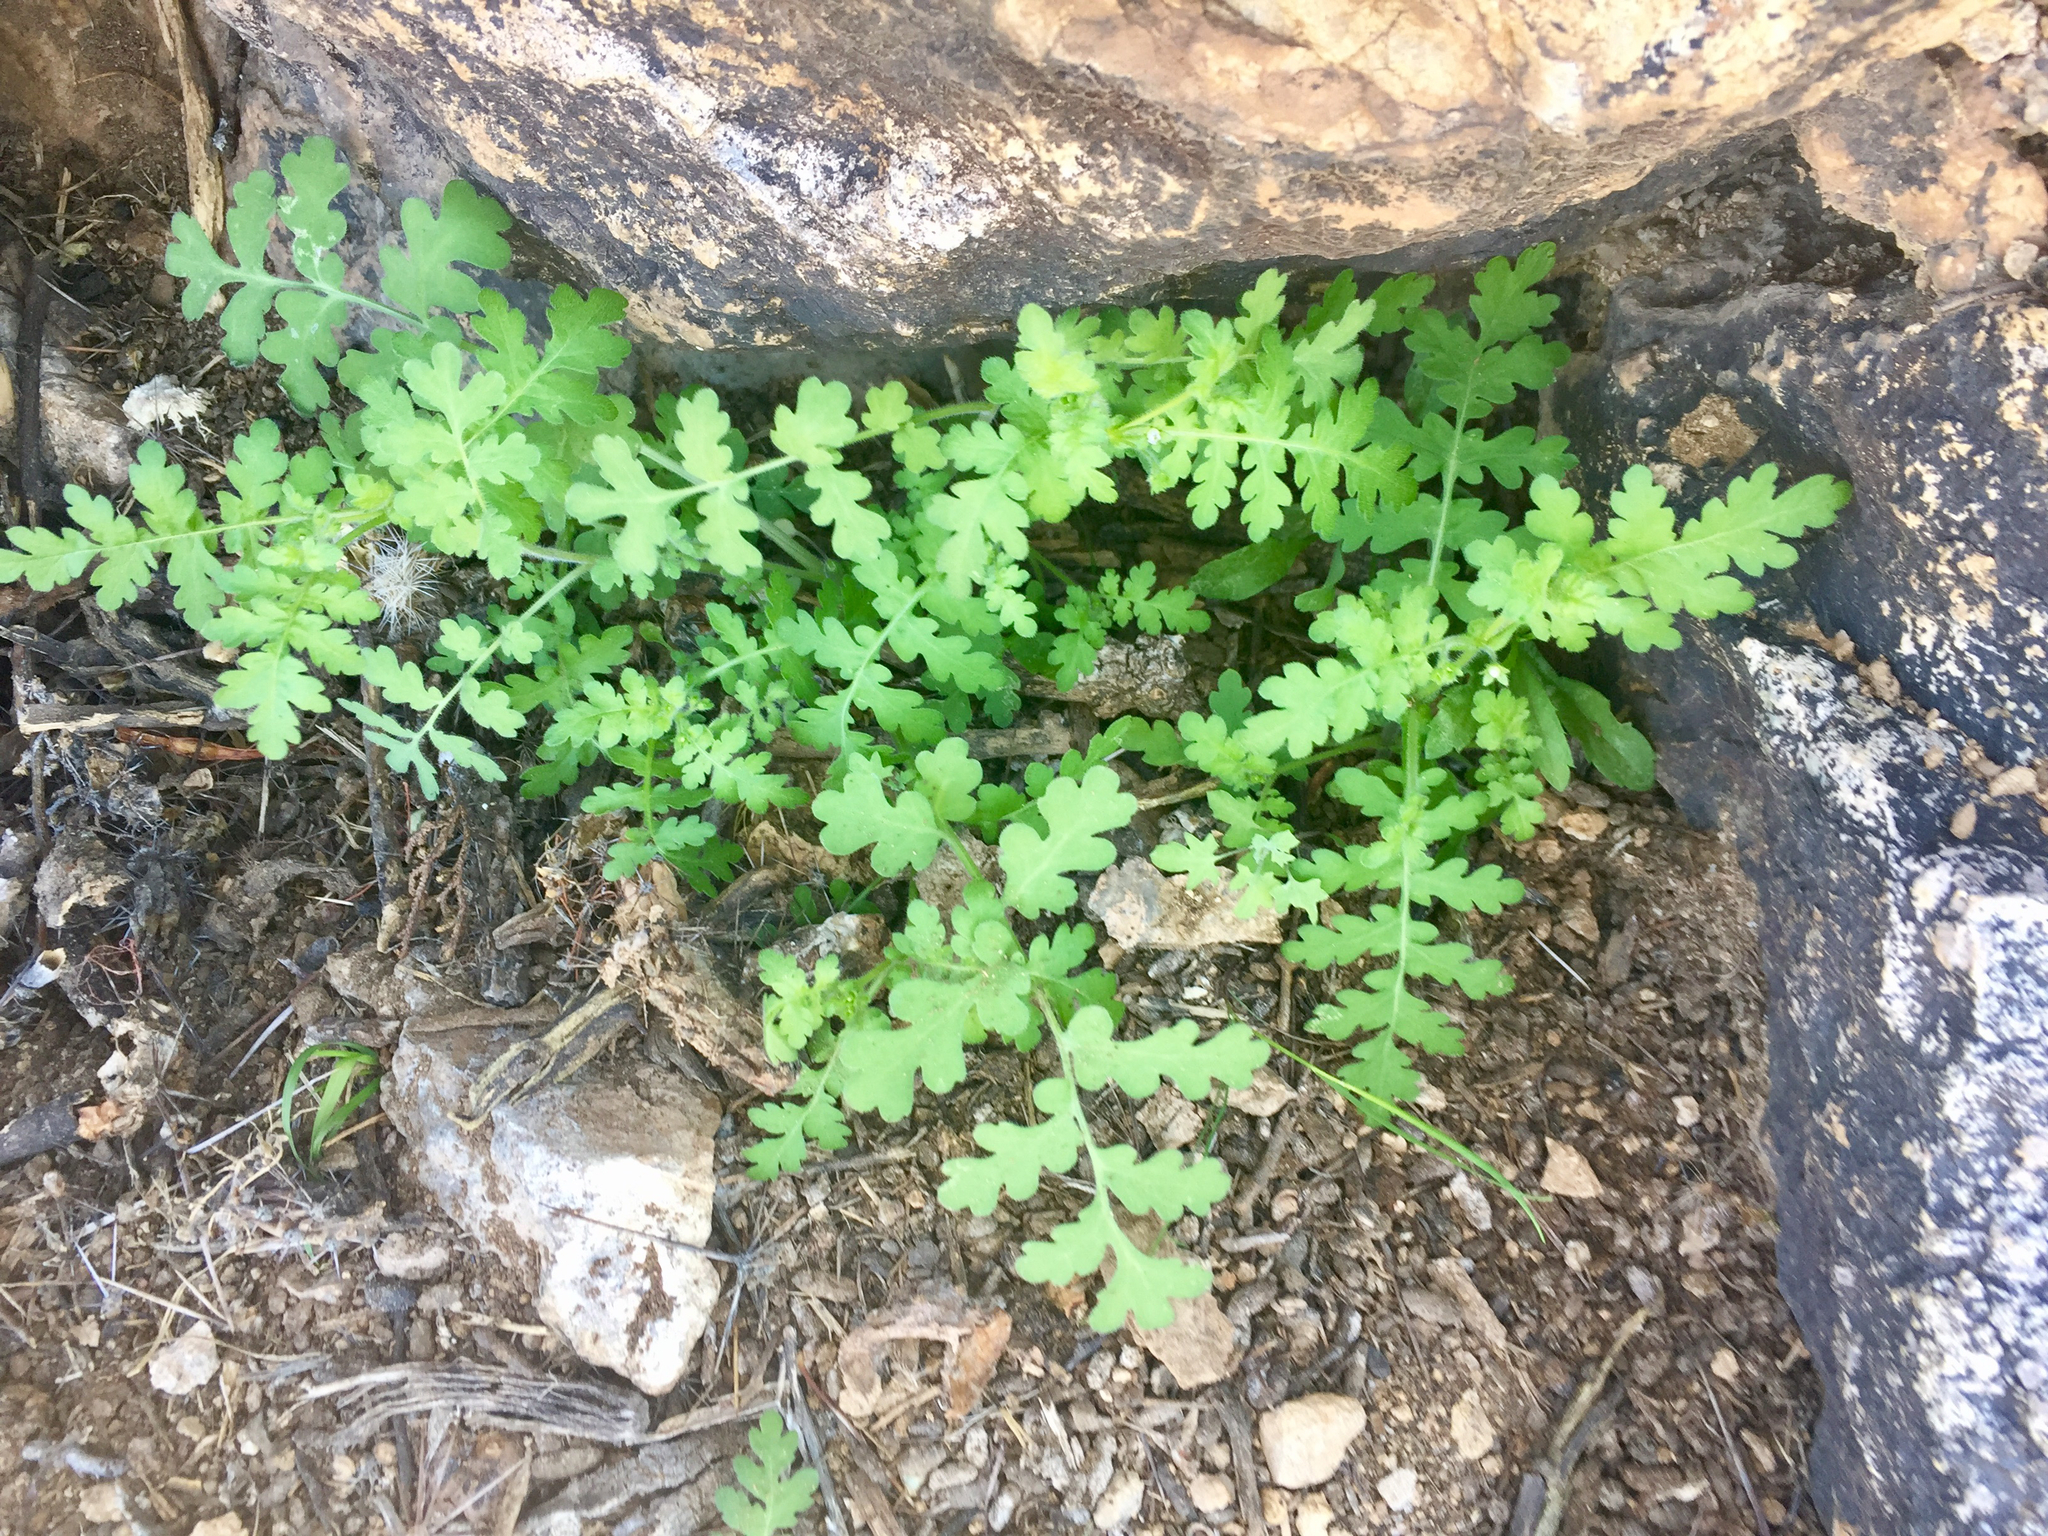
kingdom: Plantae
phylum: Tracheophyta
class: Magnoliopsida
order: Boraginales
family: Hydrophyllaceae
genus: Phacelia
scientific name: Phacelia distans
